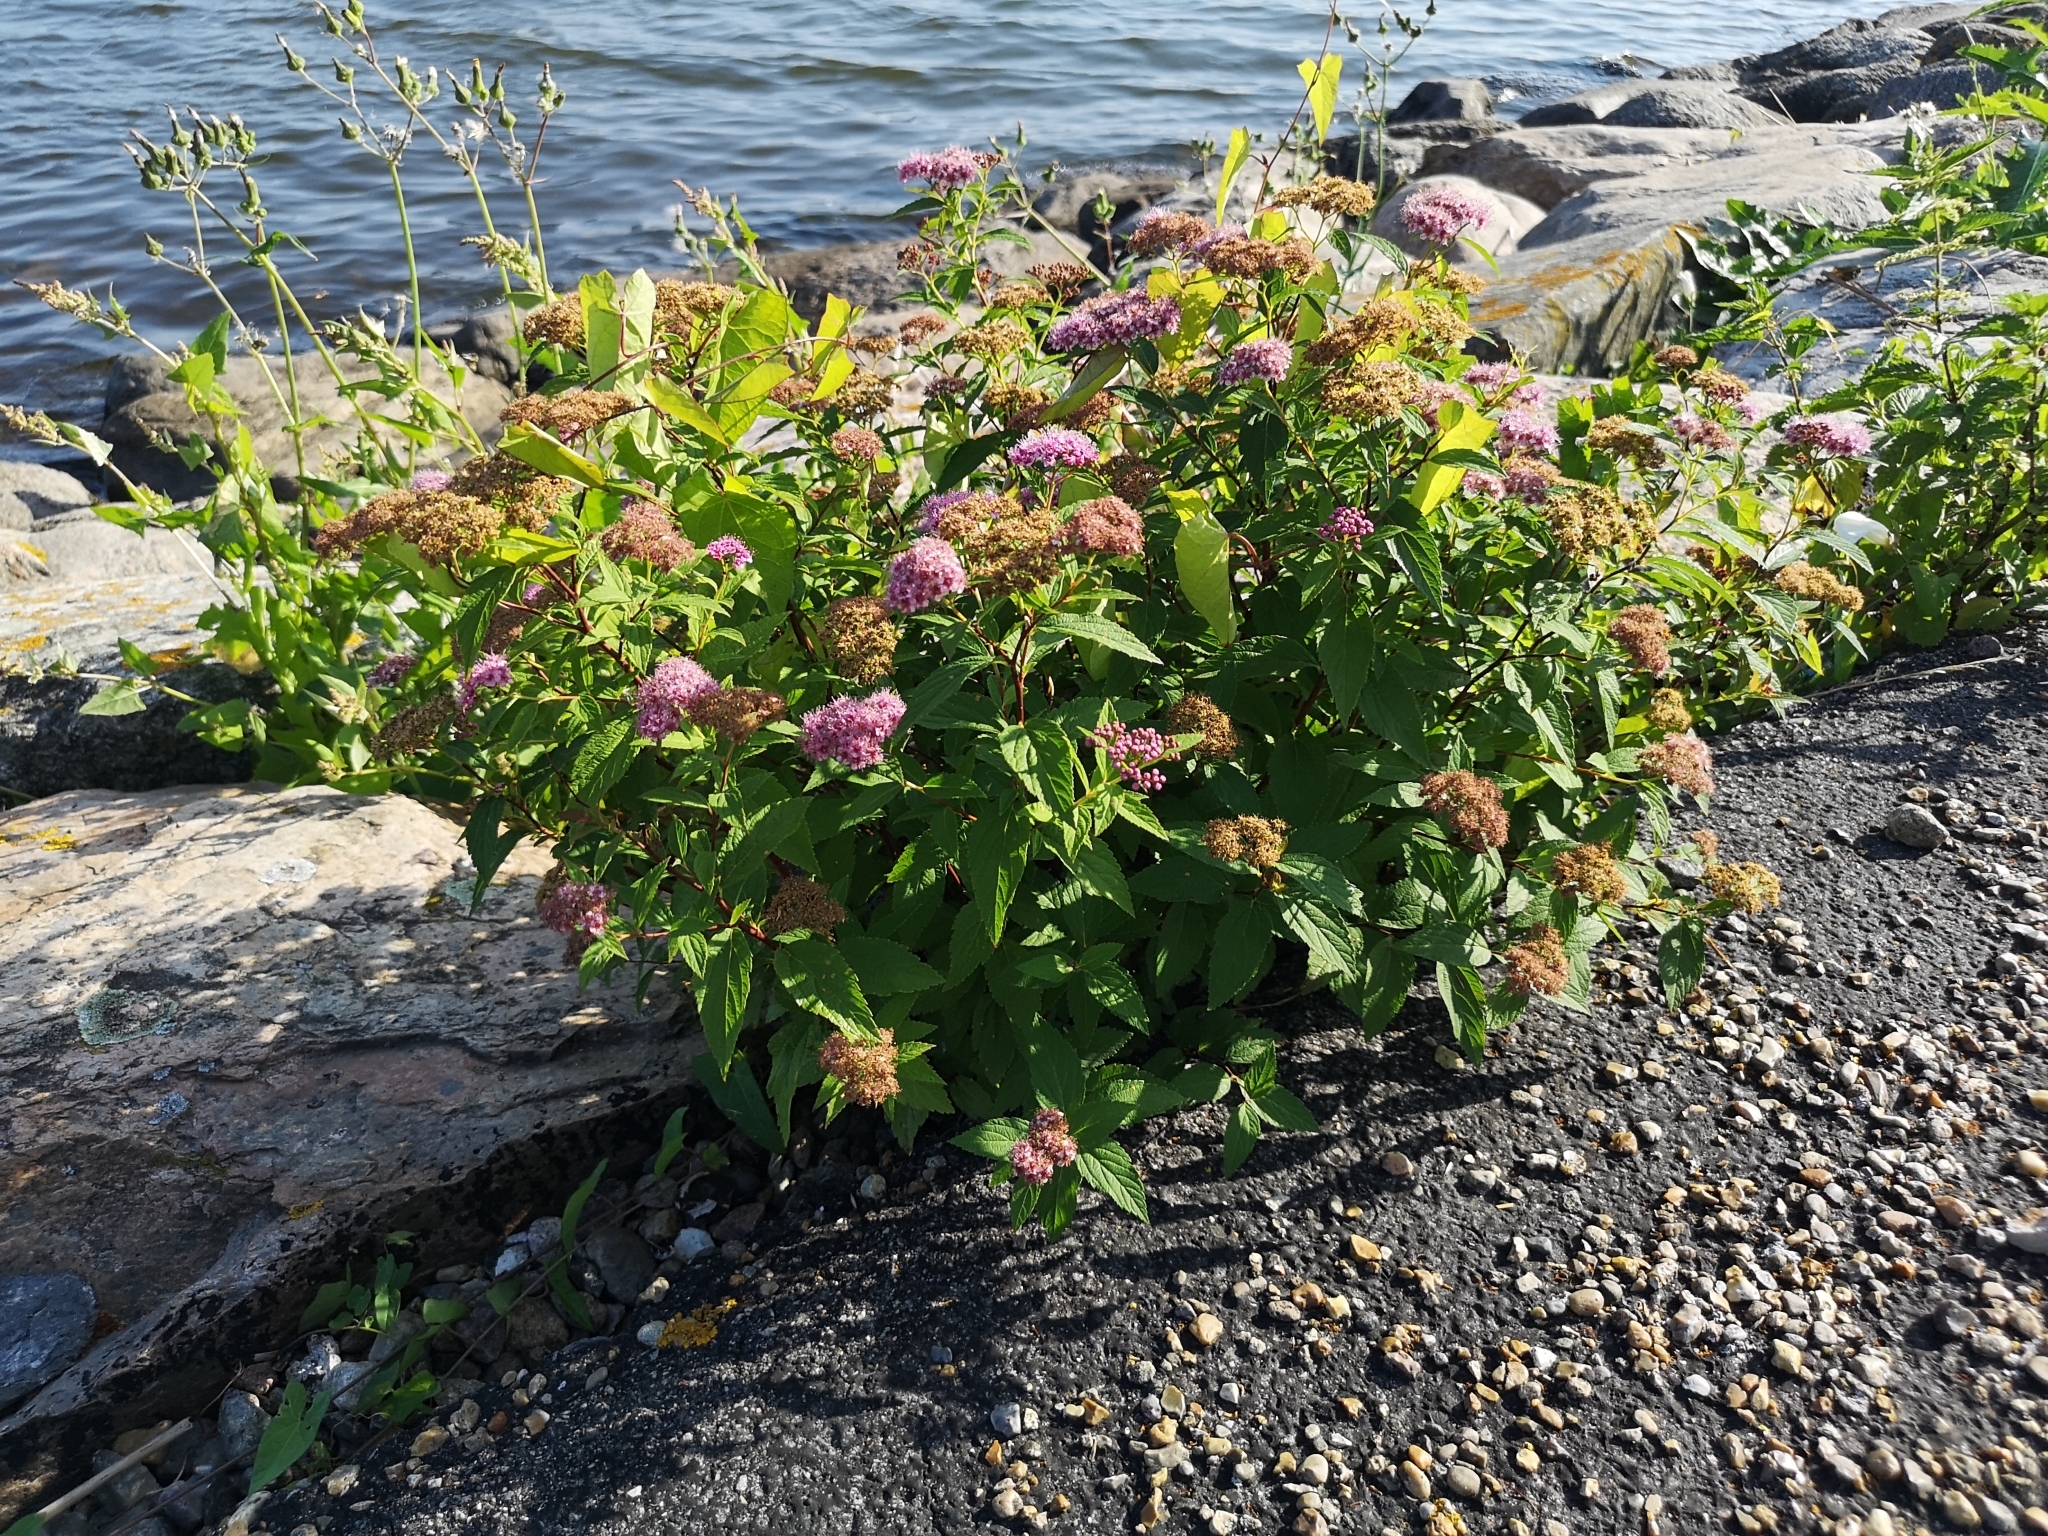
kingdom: Plantae
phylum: Tracheophyta
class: Magnoliopsida
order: Rosales
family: Rosaceae
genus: Spiraea
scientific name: Spiraea japonica
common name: Japanese spiraea
